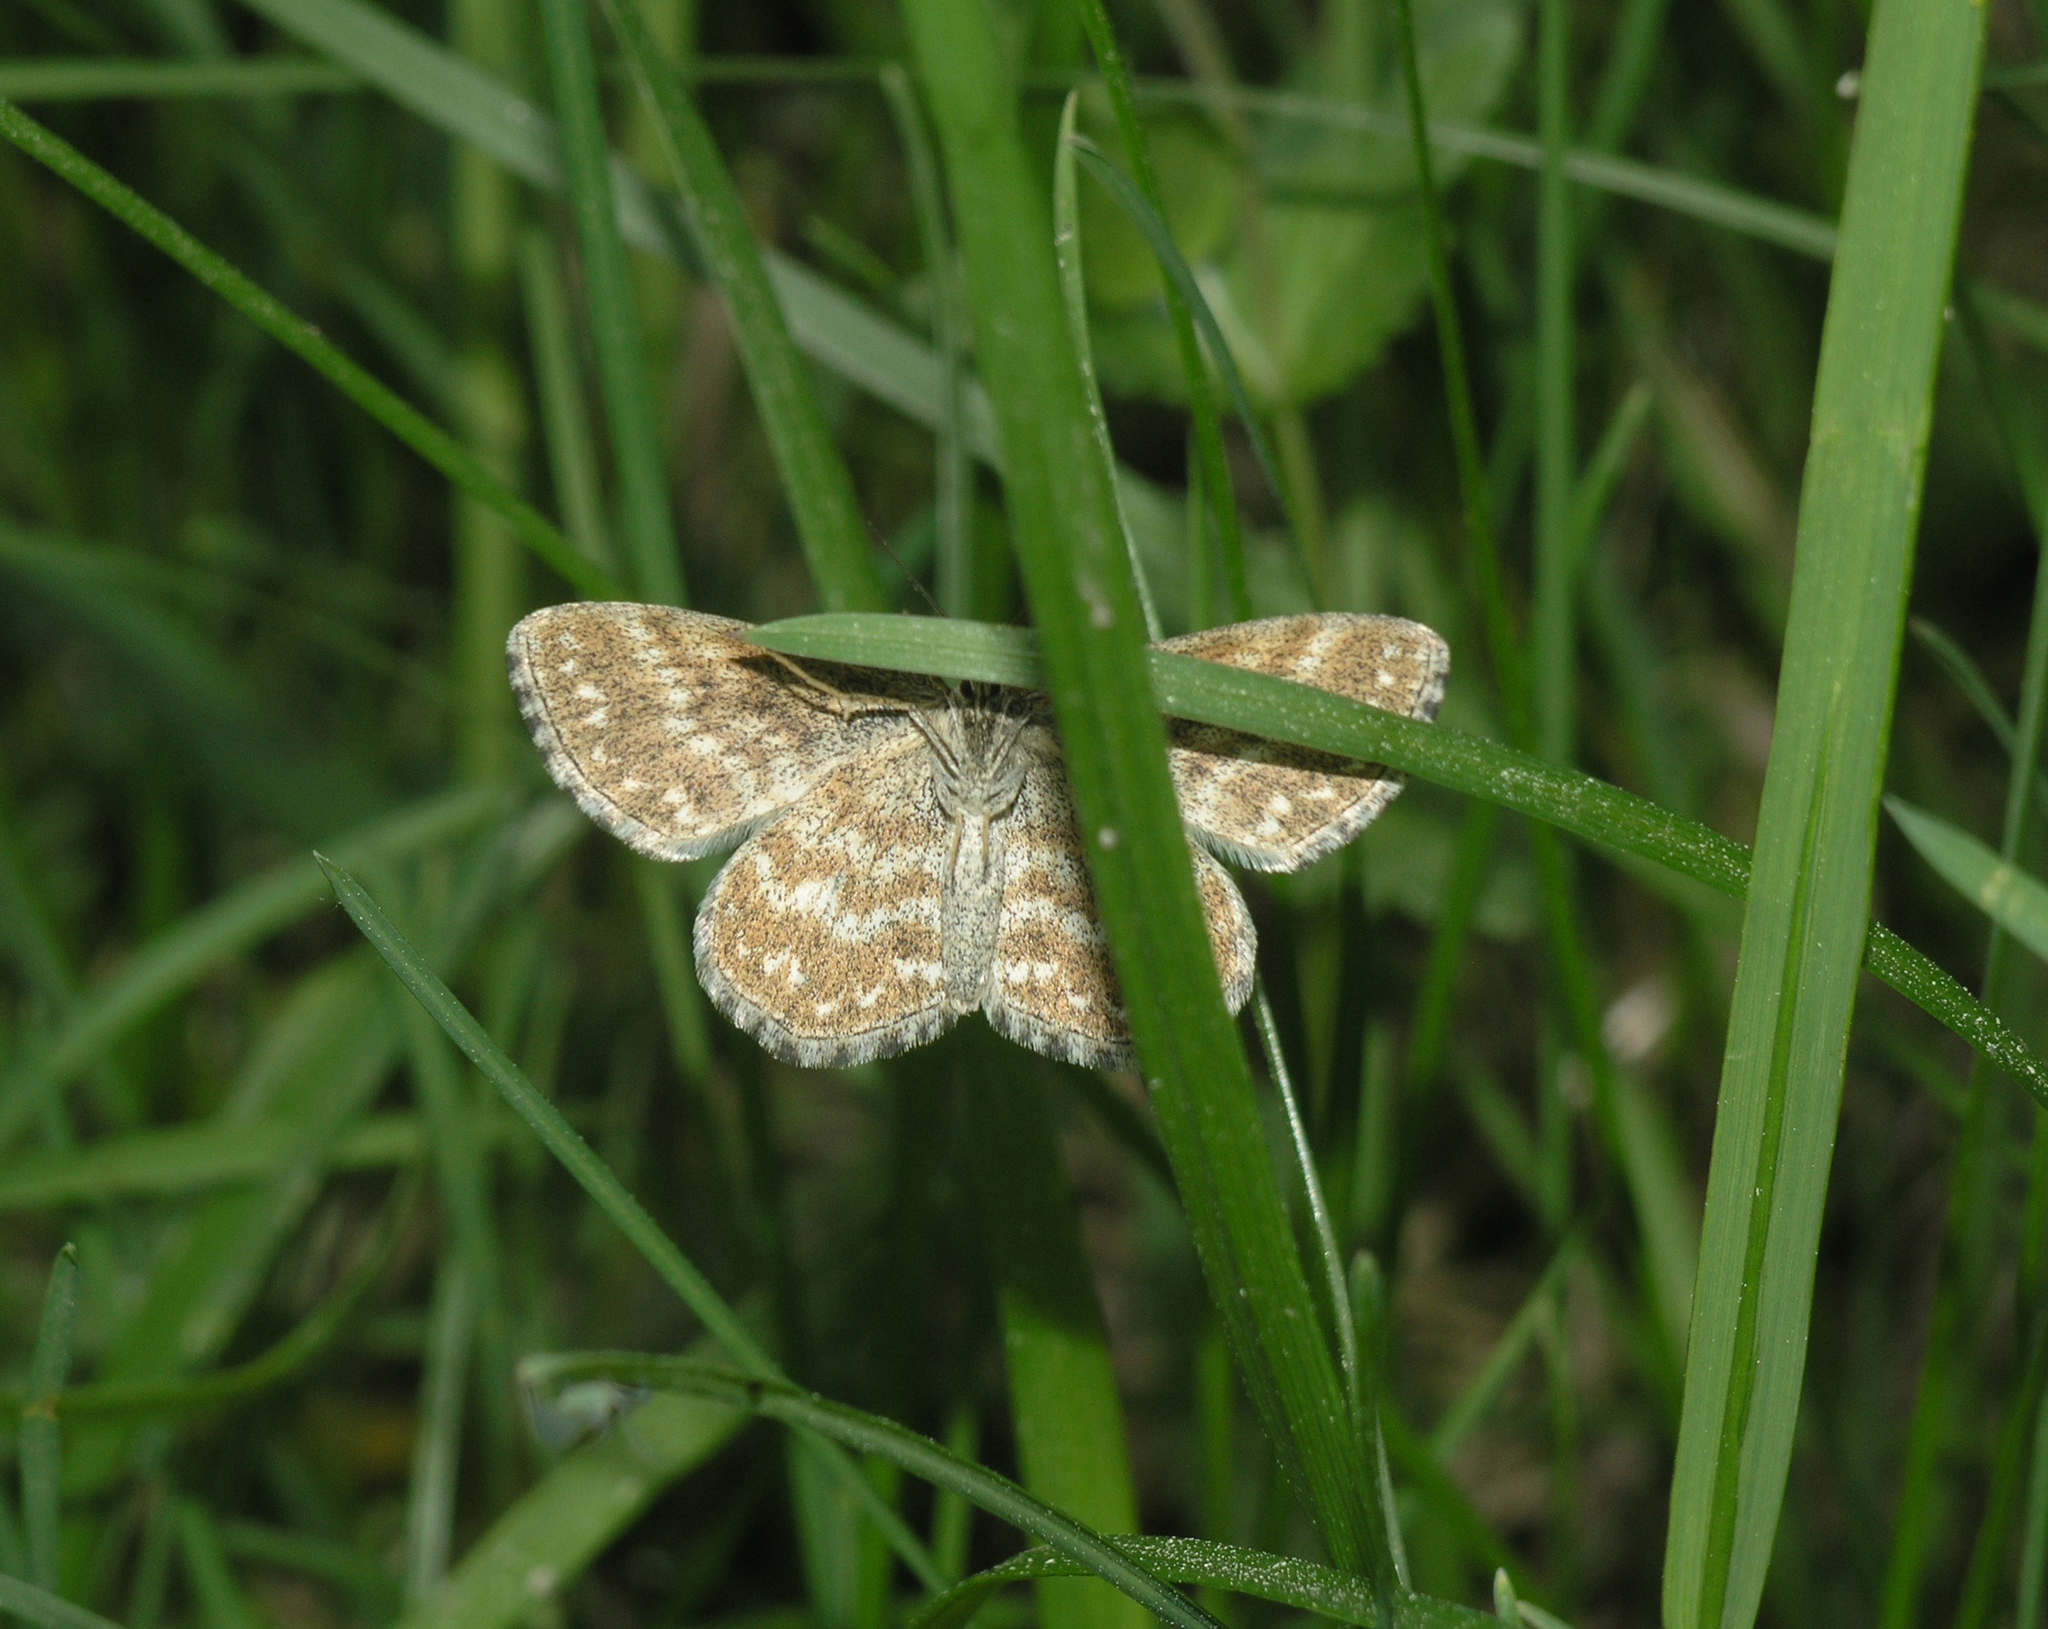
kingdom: Animalia
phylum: Arthropoda
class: Insecta
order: Lepidoptera
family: Geometridae
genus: Scopula
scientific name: Scopula immorata
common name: Lewes wave
